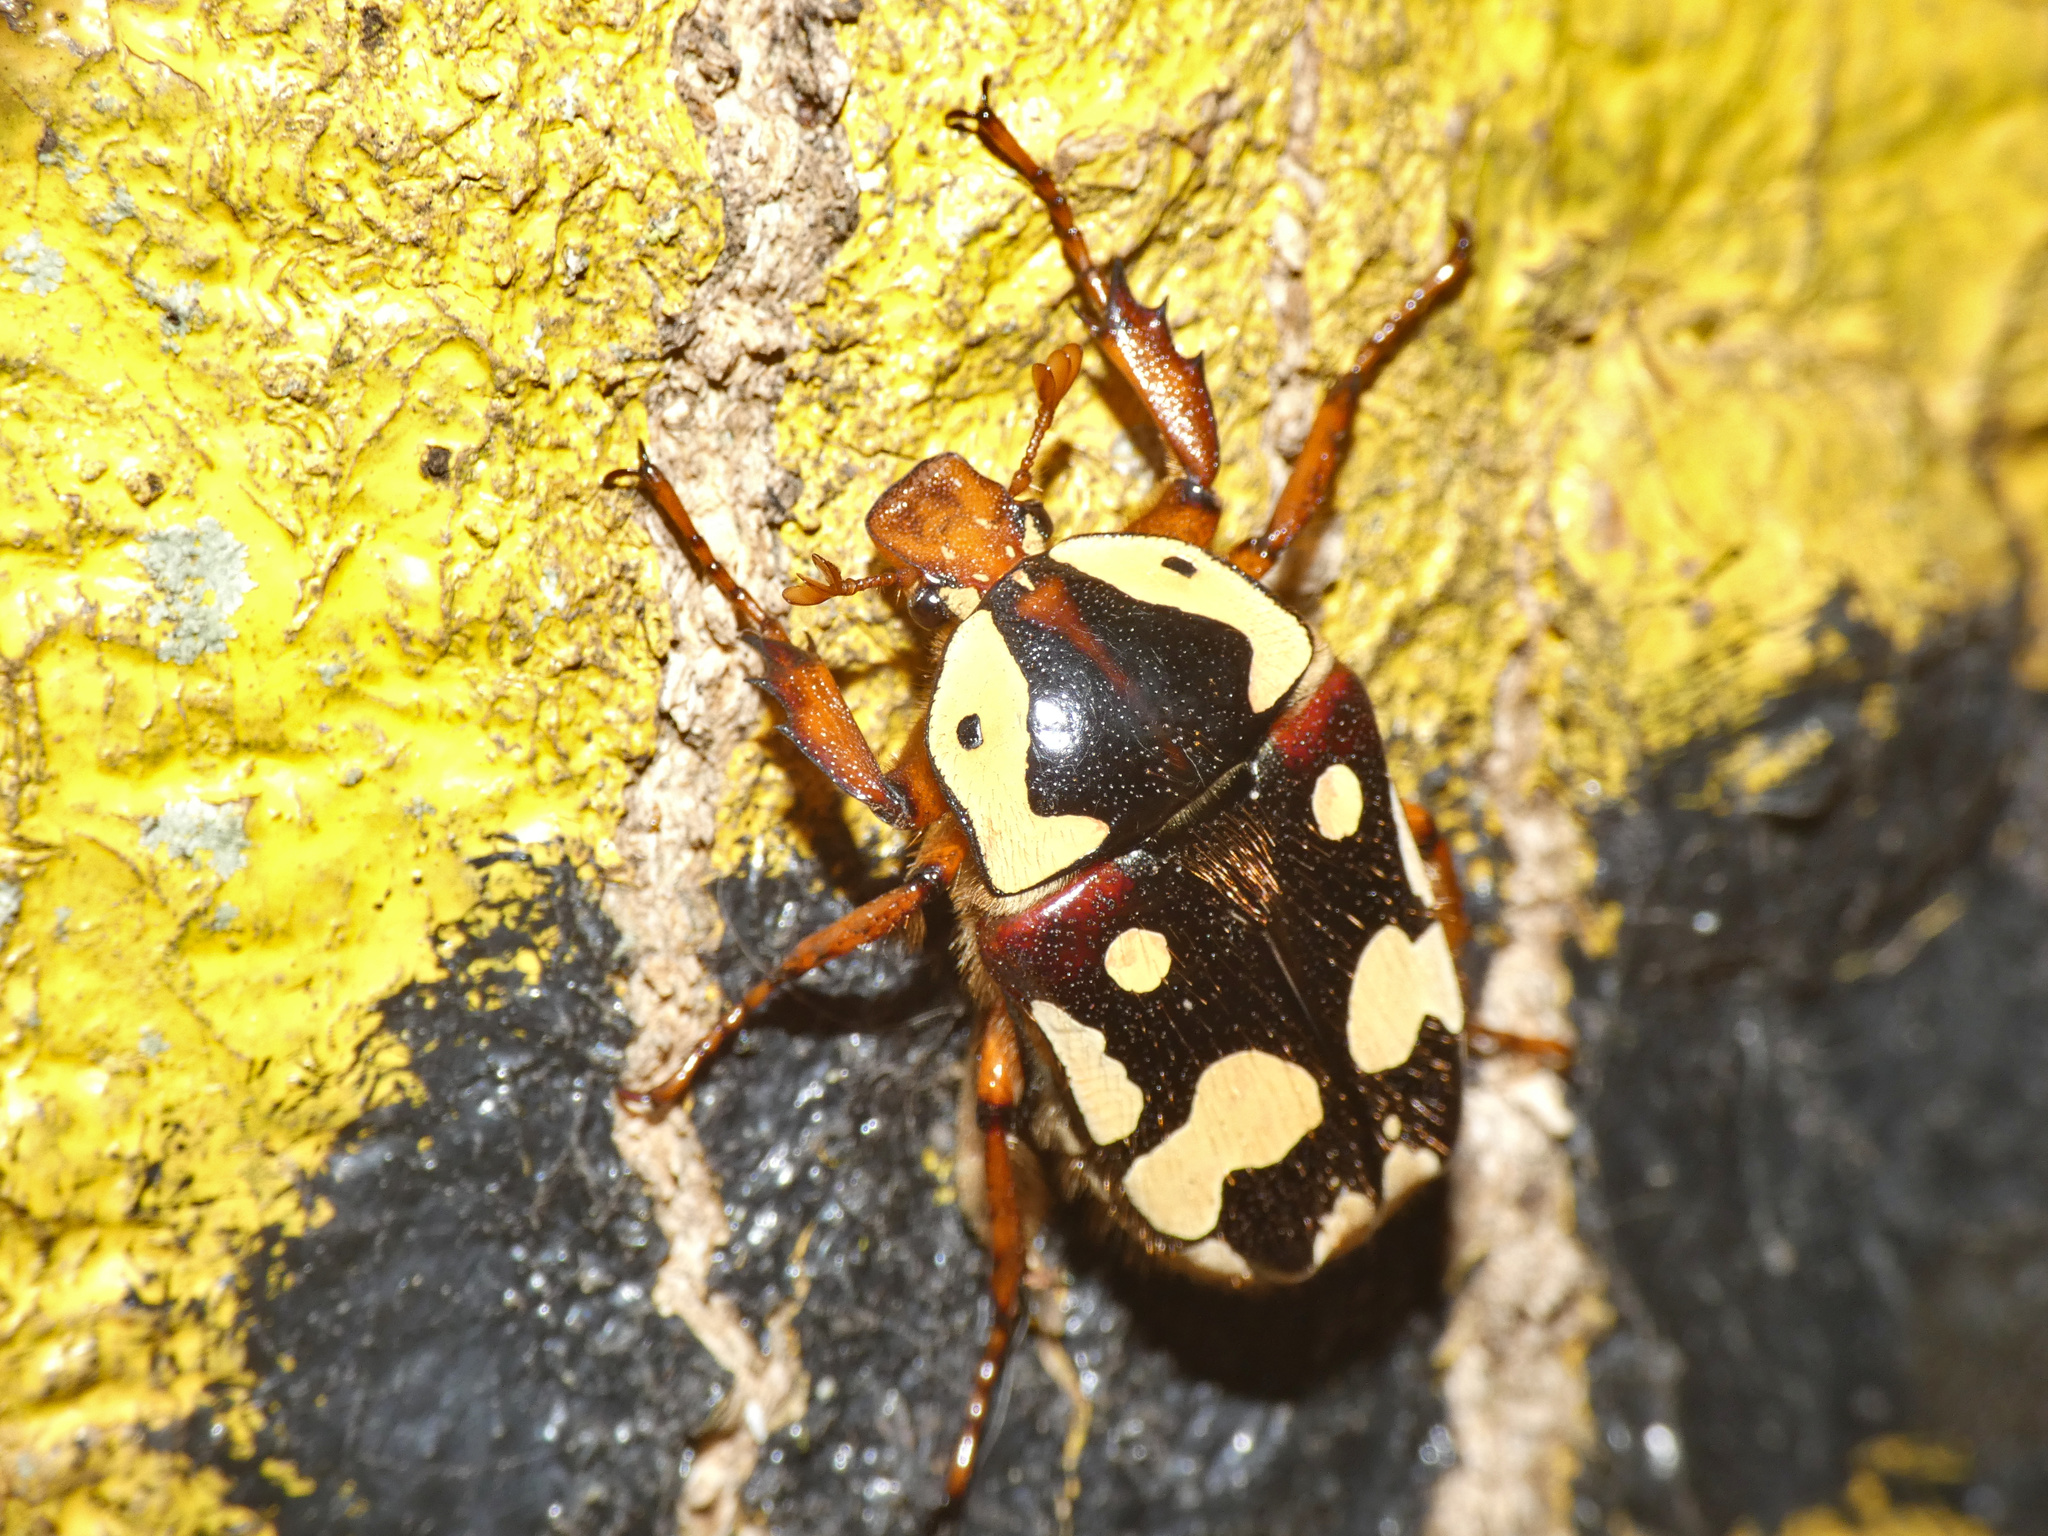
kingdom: Animalia
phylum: Arthropoda
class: Insecta
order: Coleoptera
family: Scarabaeidae
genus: Cheirolasia
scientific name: Cheirolasia burkei
